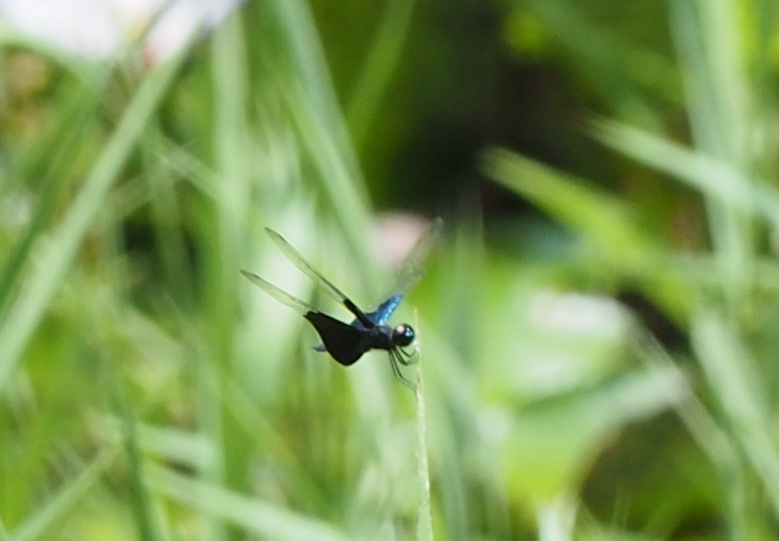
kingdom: Animalia
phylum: Arthropoda
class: Insecta
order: Odonata
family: Libellulidae
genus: Rhyothemis
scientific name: Rhyothemis triangularis
